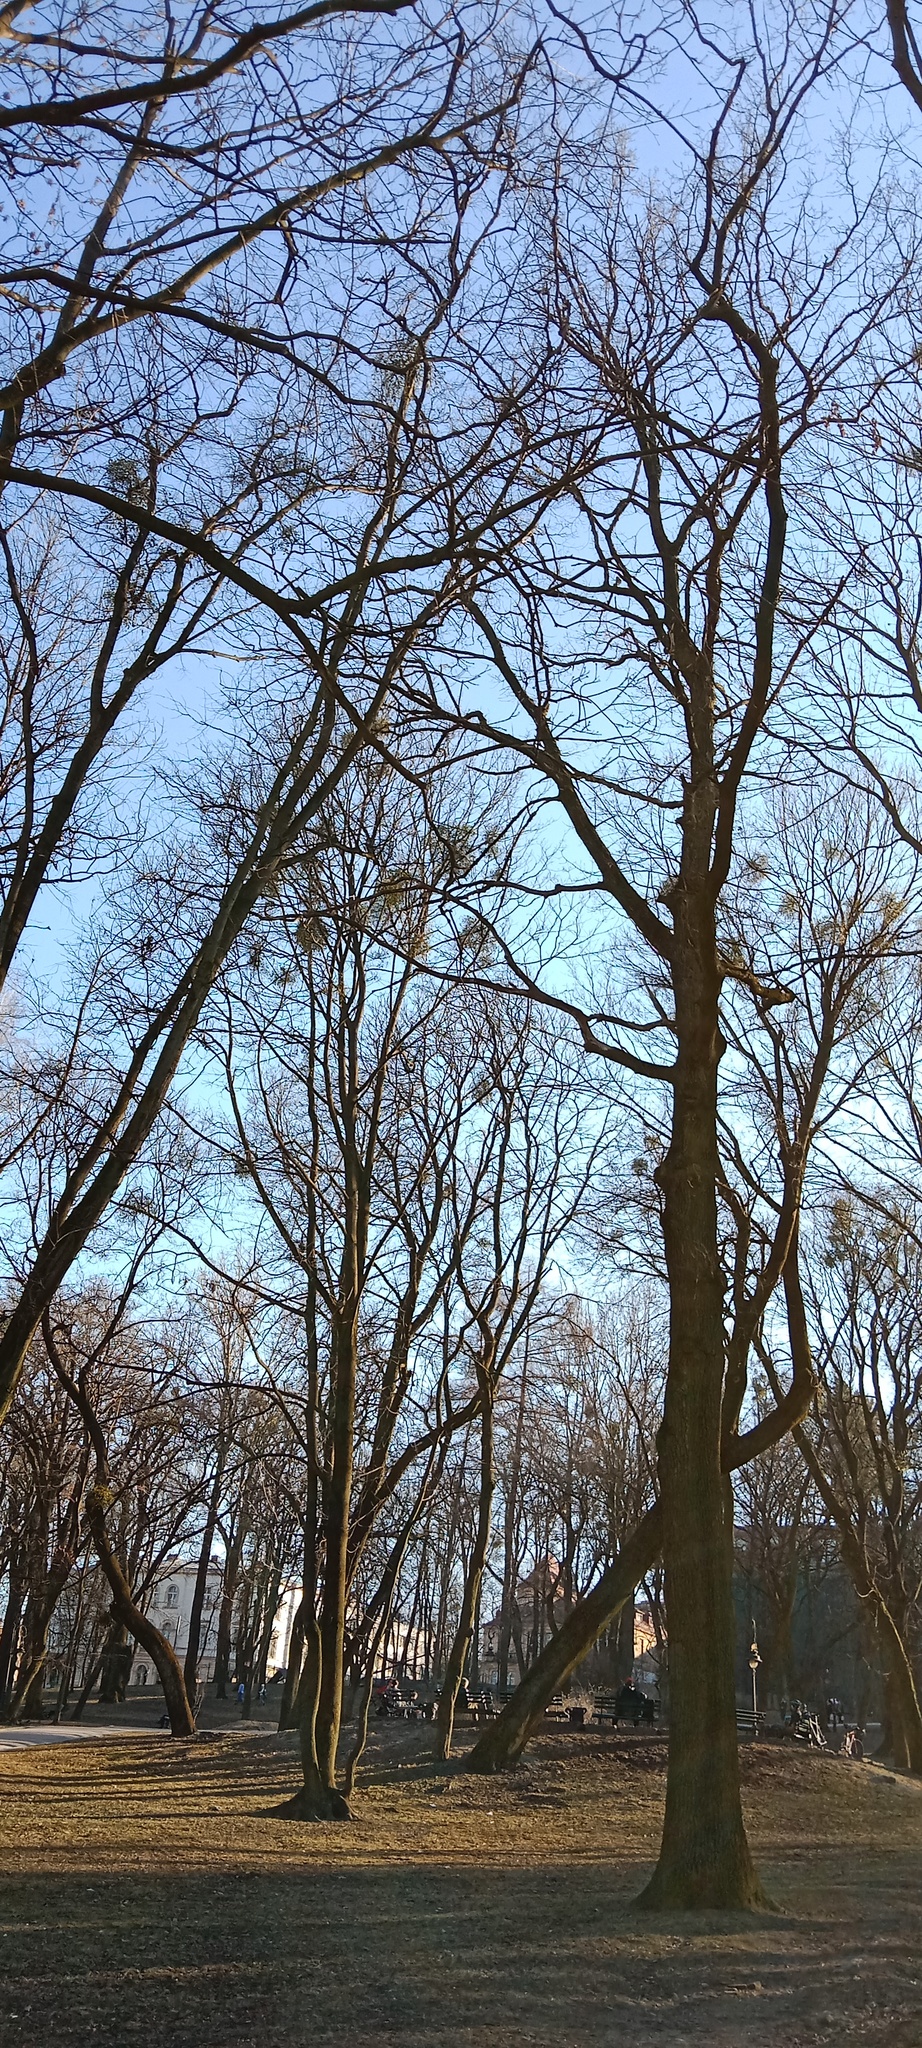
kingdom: Plantae
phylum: Tracheophyta
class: Magnoliopsida
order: Santalales
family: Viscaceae
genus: Viscum
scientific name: Viscum album
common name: Mistletoe
